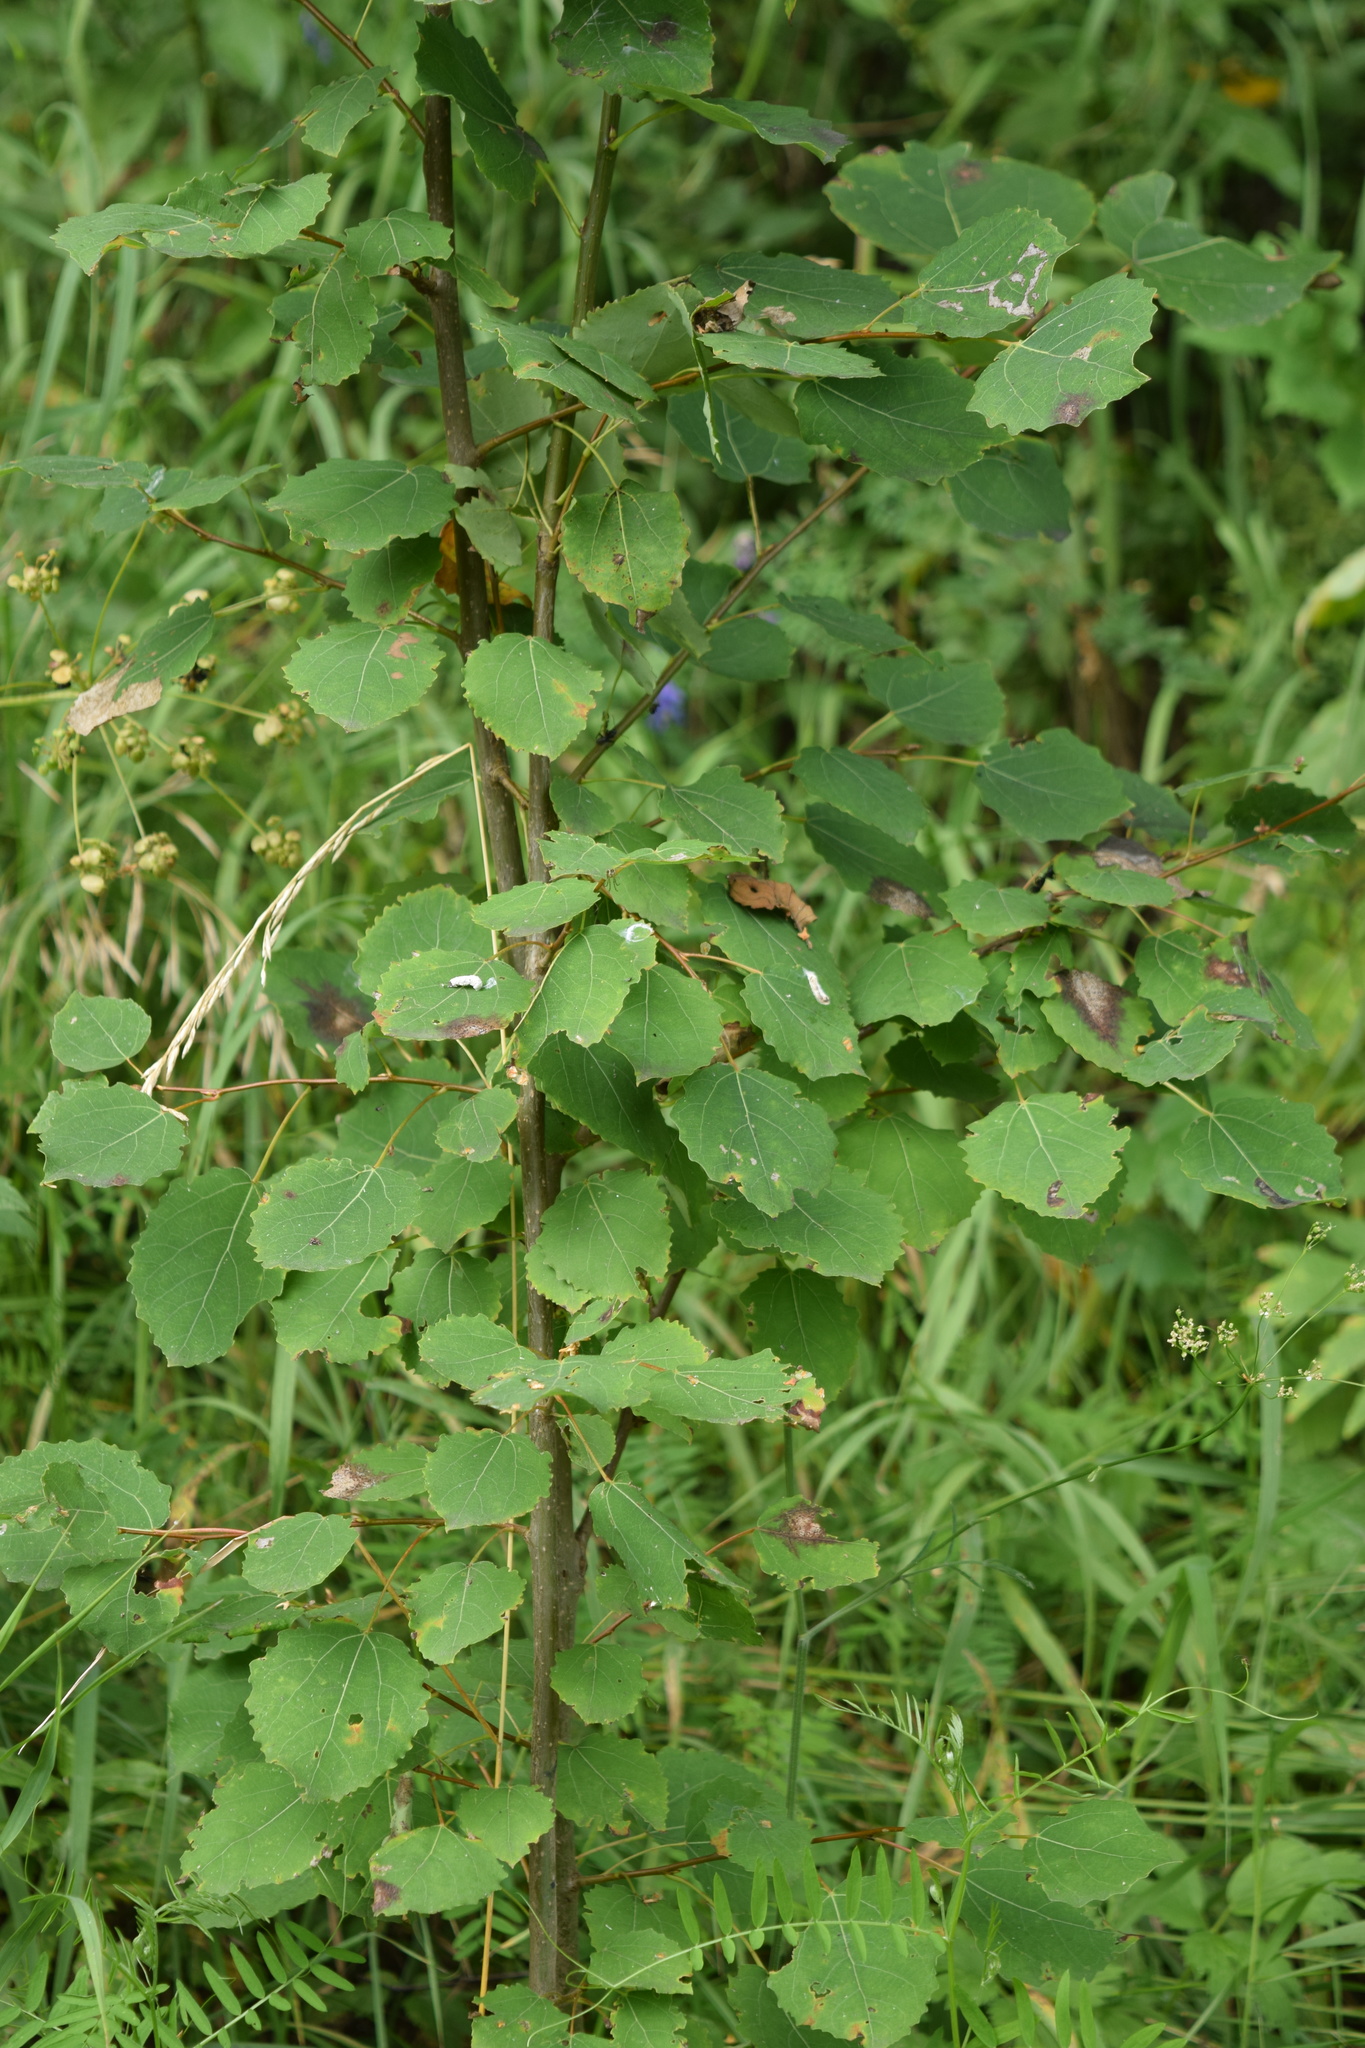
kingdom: Plantae
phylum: Tracheophyta
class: Magnoliopsida
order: Malpighiales
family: Salicaceae
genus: Populus
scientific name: Populus tremula
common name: European aspen
